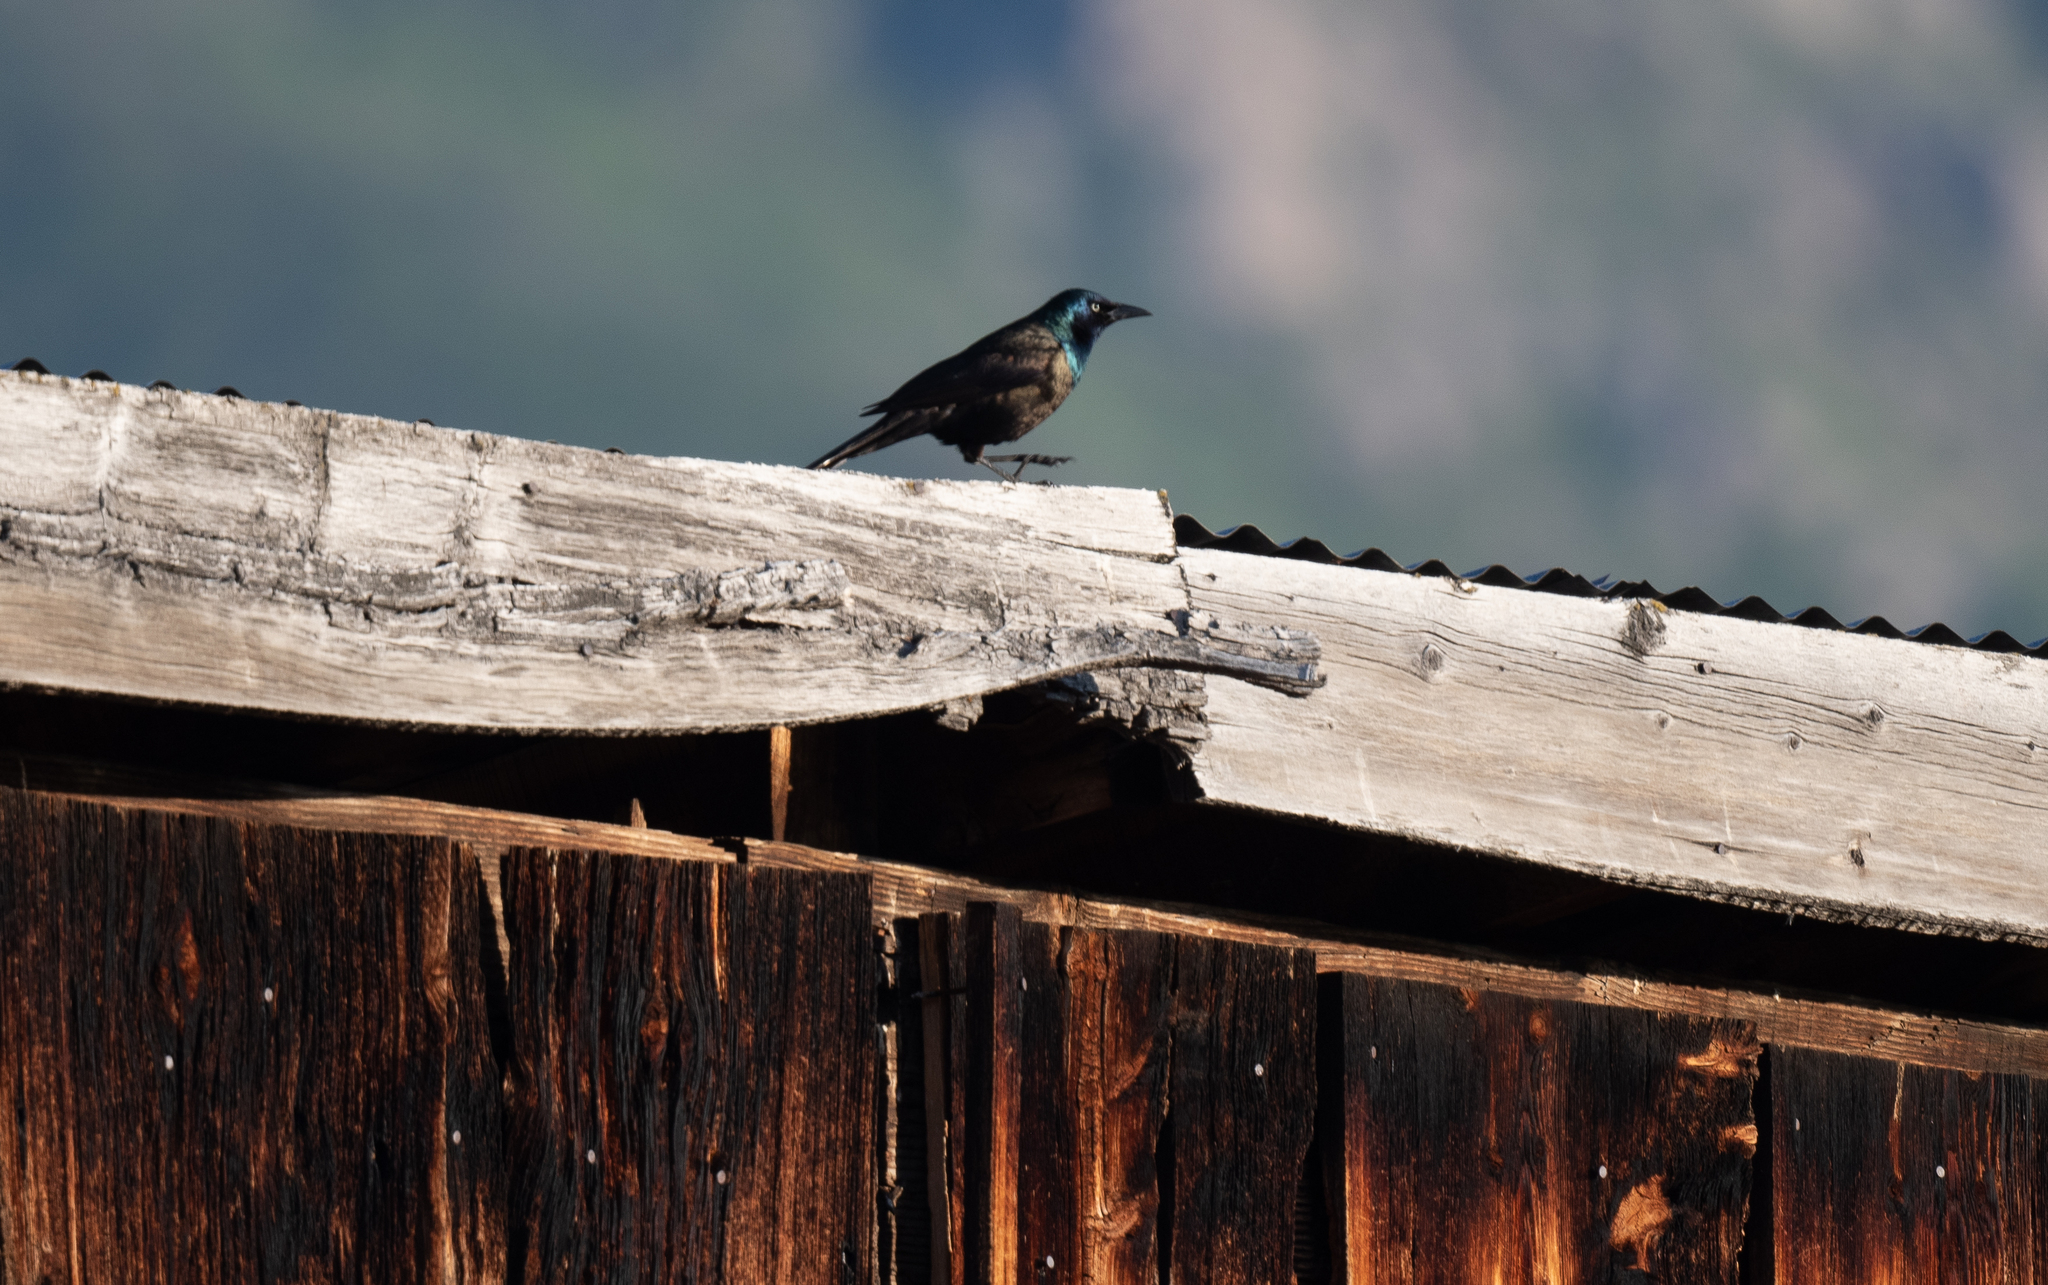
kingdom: Animalia
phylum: Chordata
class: Aves
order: Passeriformes
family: Icteridae
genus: Quiscalus
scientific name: Quiscalus quiscula
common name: Common grackle
